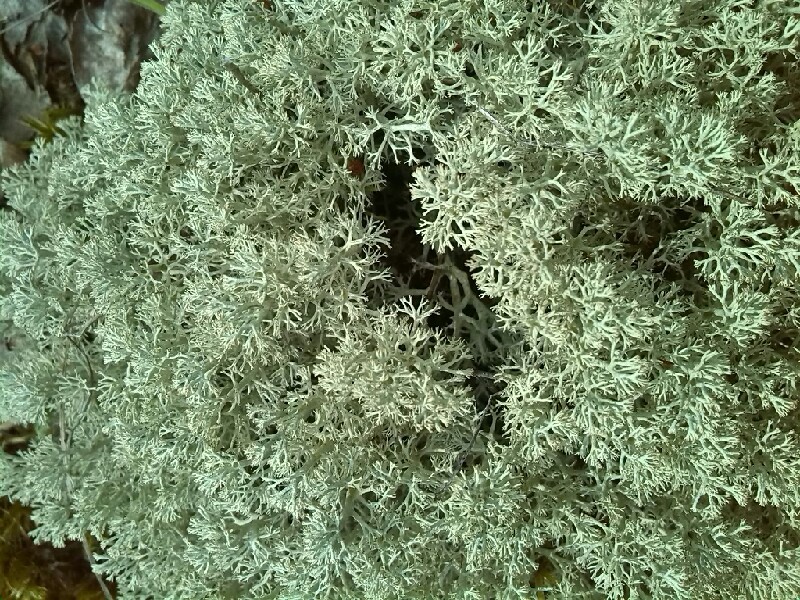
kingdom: Fungi
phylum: Ascomycota
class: Lecanoromycetes
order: Lecanorales
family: Cladoniaceae
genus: Cladonia
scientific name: Cladonia arbuscula
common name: Reindeer lichen
